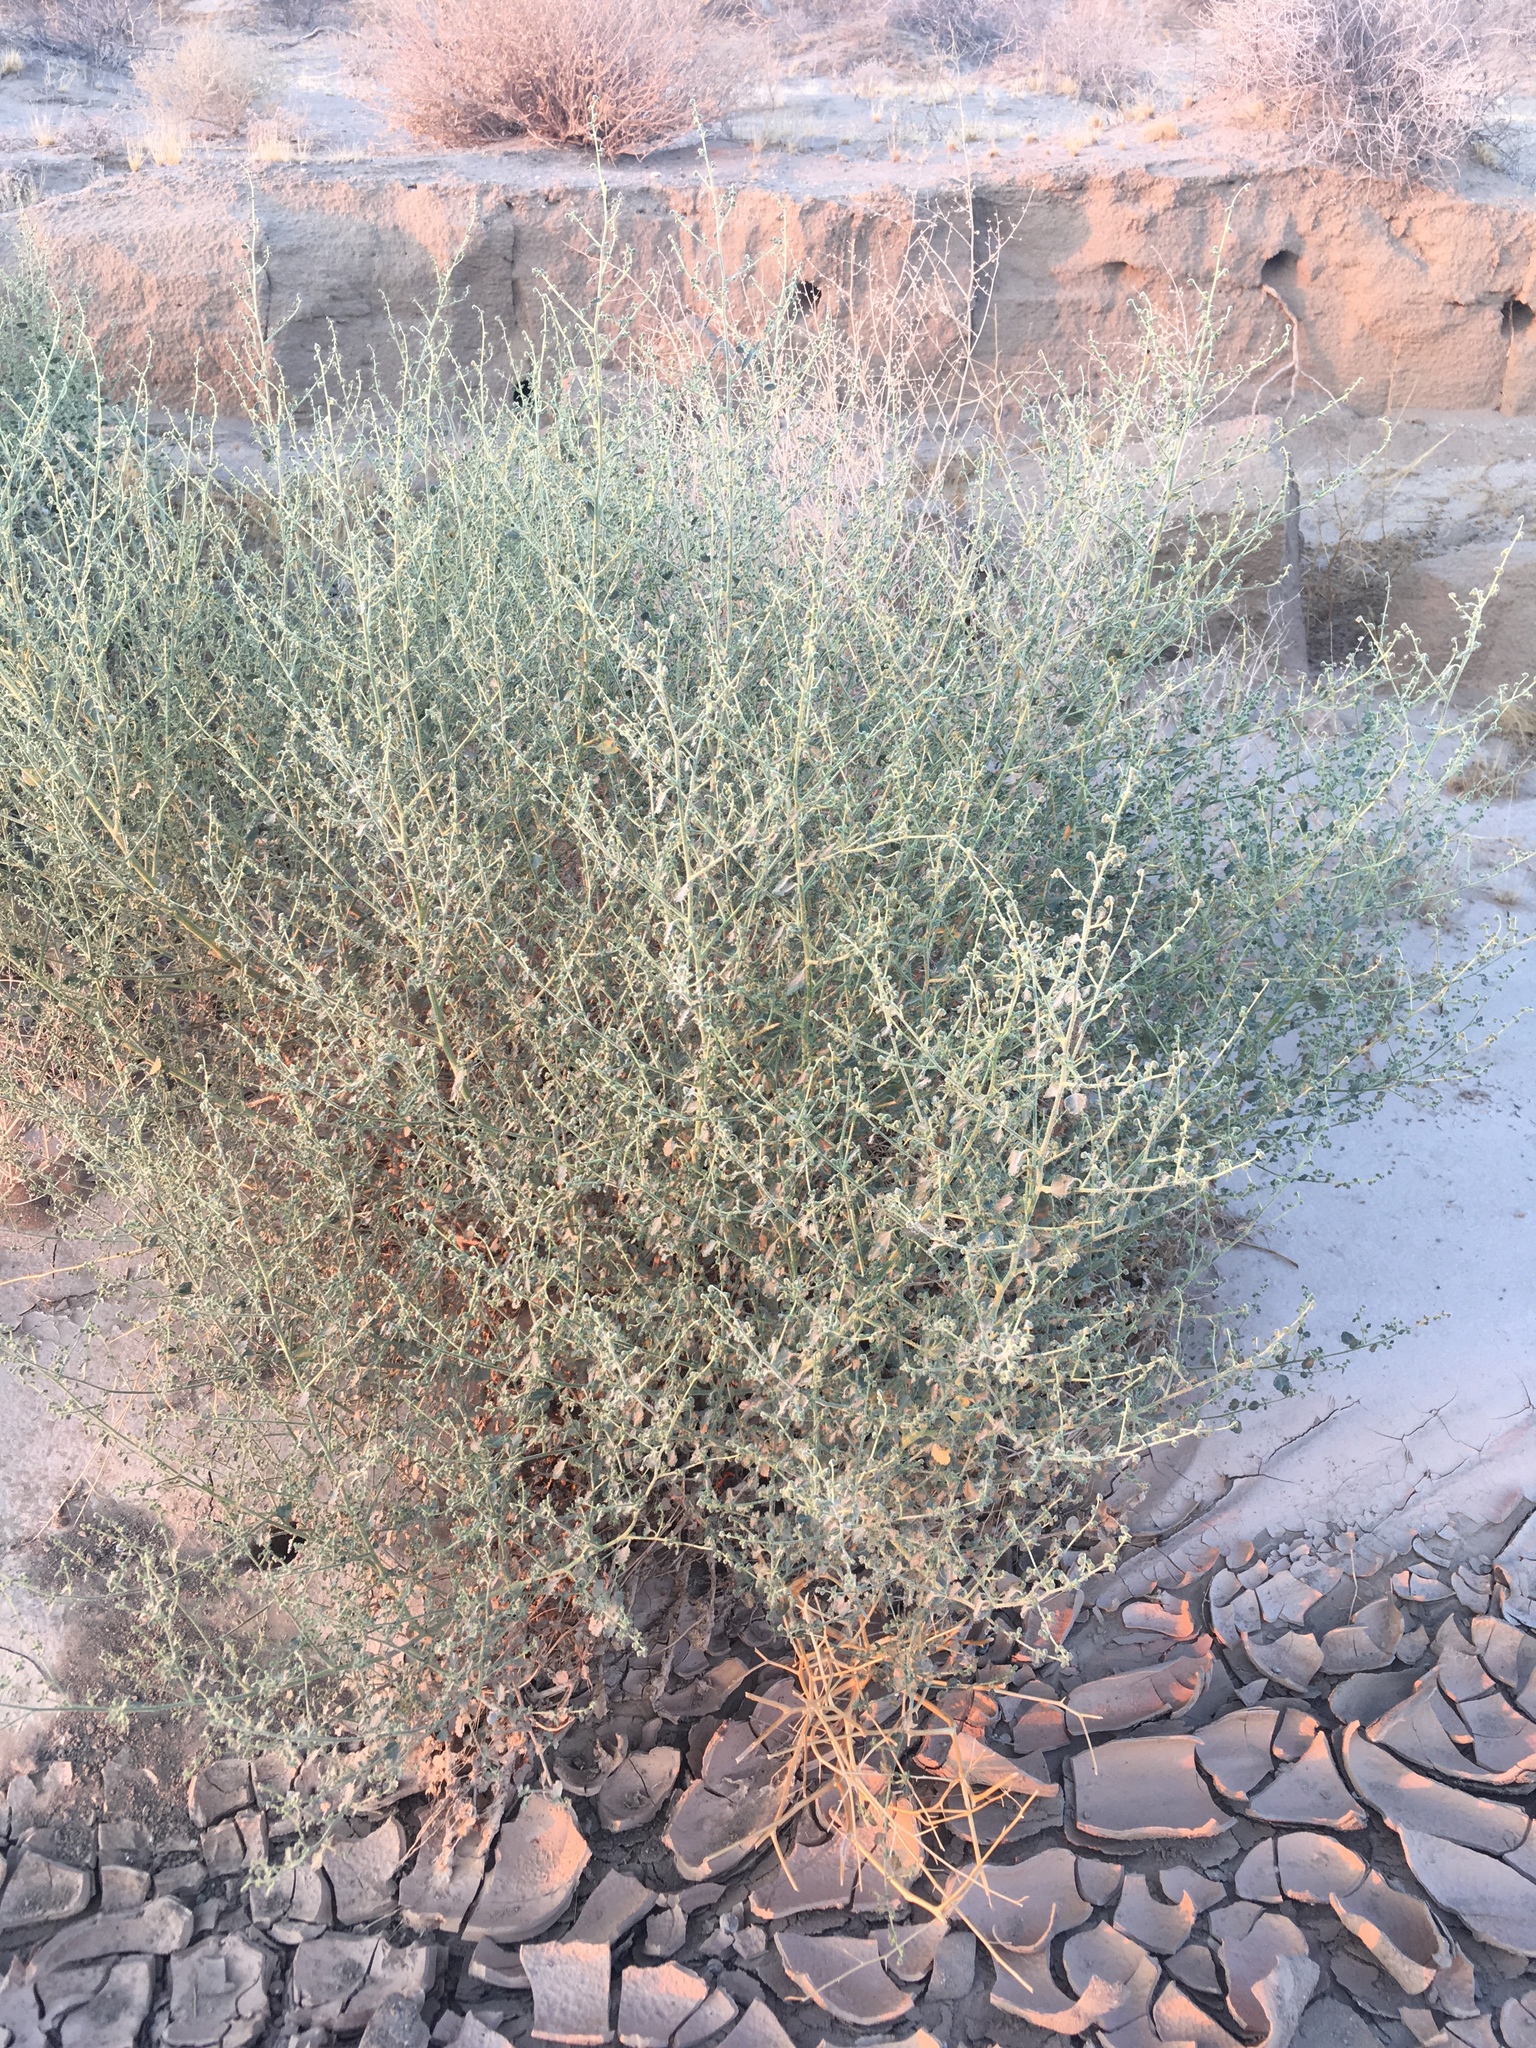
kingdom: Plantae
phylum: Tracheophyta
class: Magnoliopsida
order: Asterales
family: Asteraceae
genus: Dicoria
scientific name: Dicoria canescens
